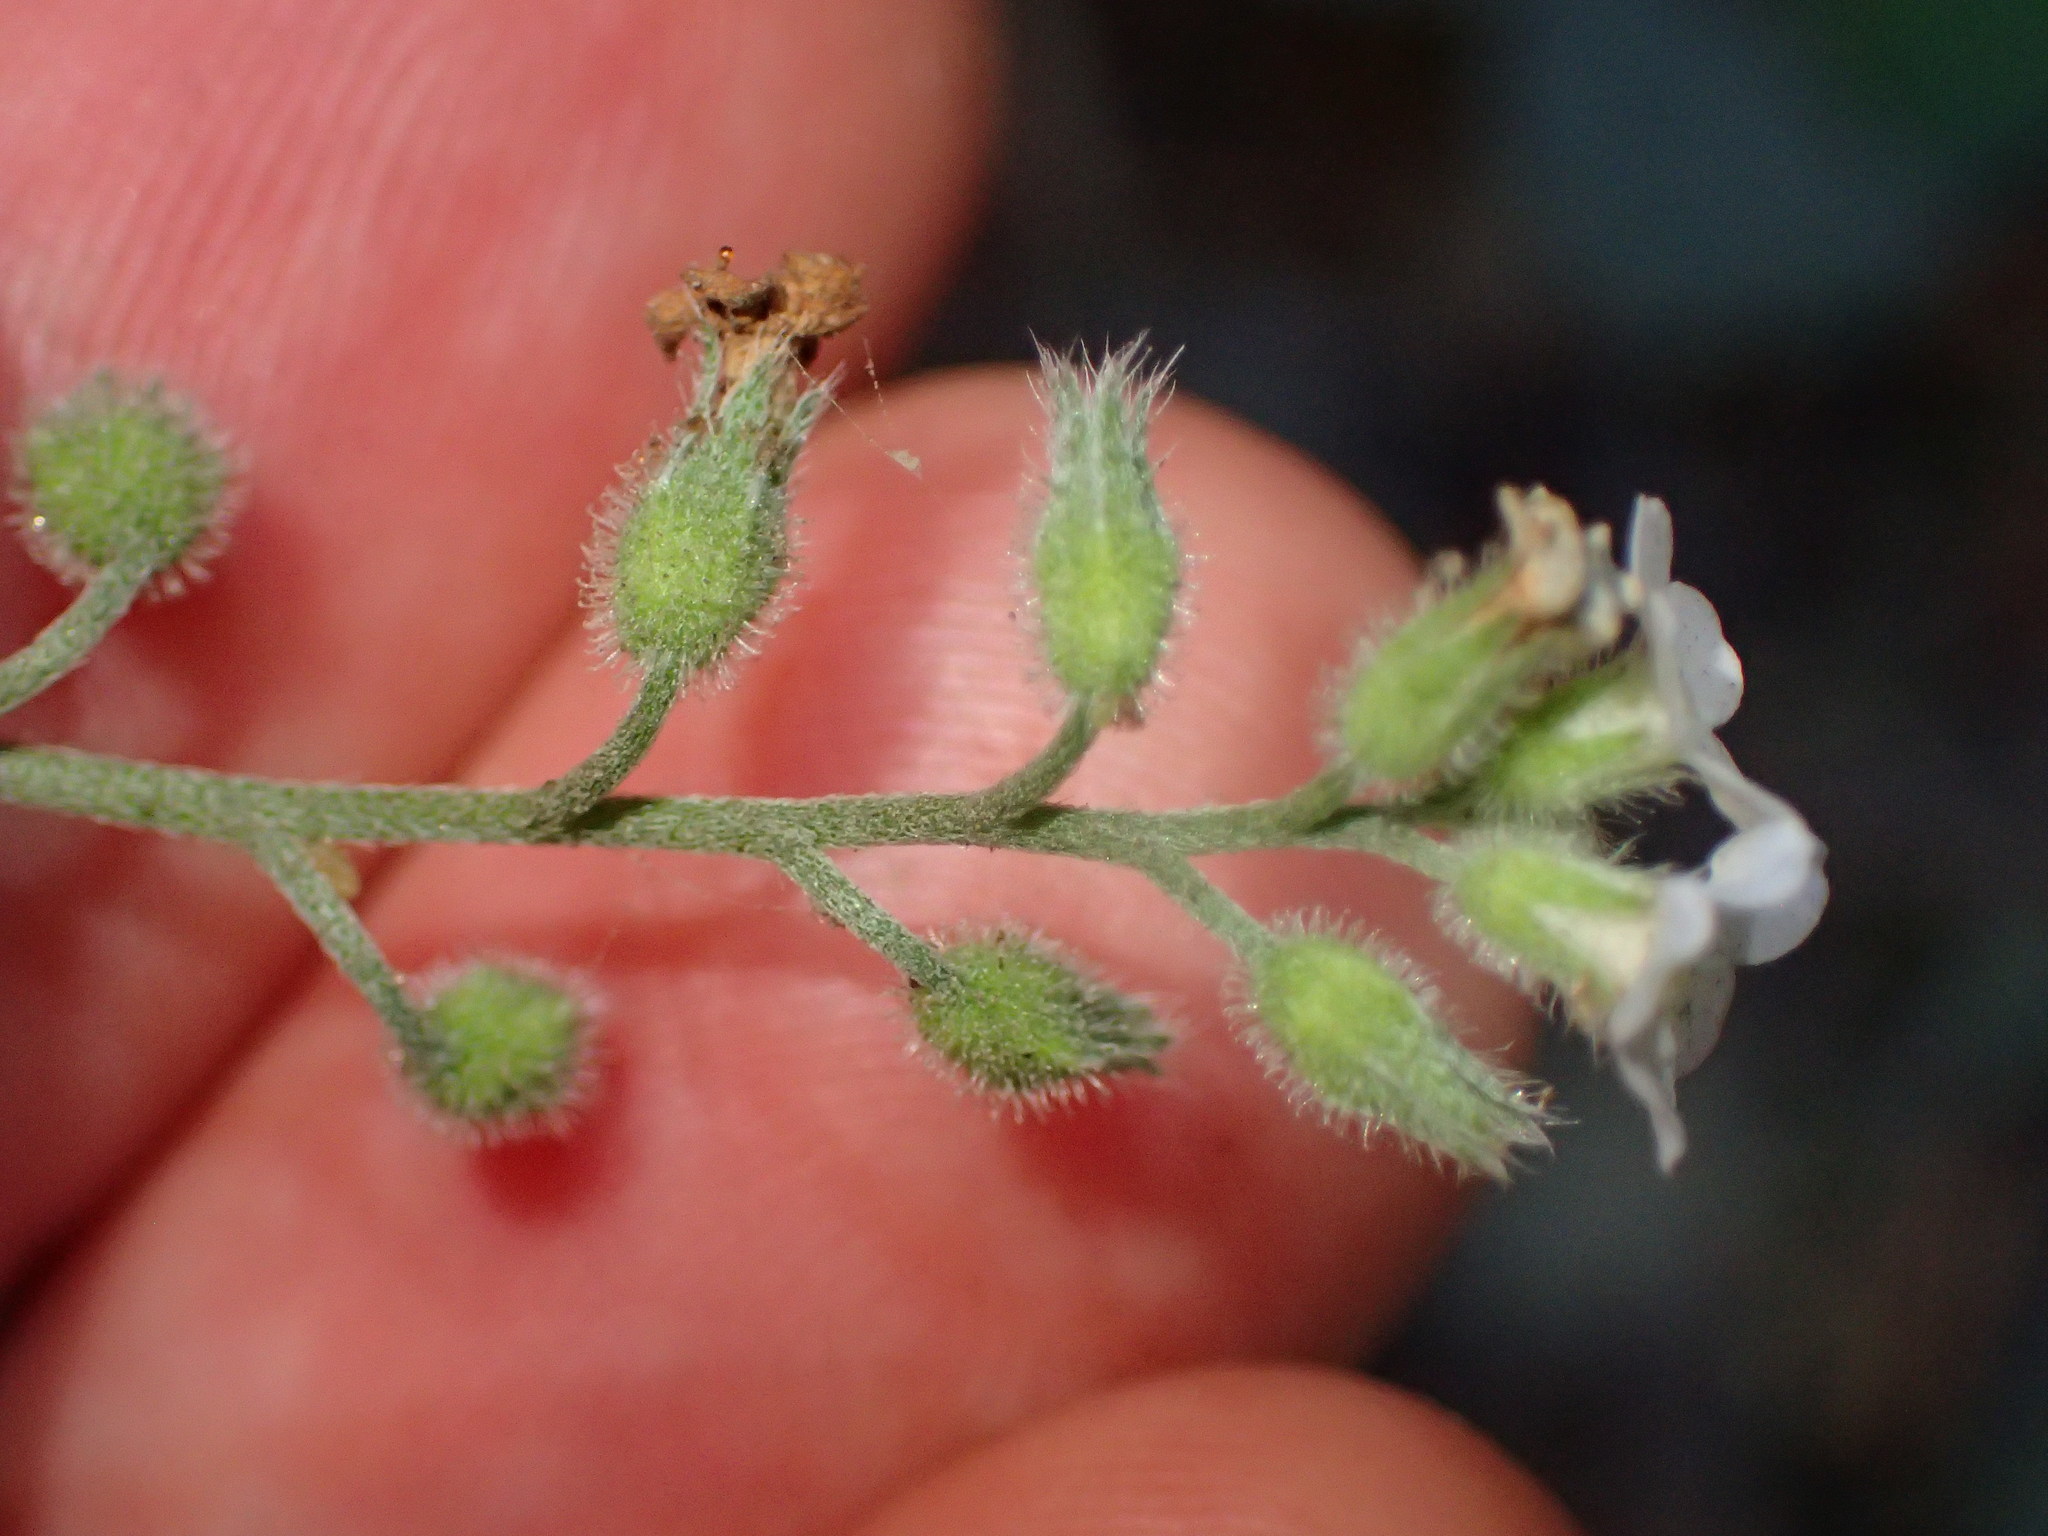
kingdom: Plantae
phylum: Tracheophyta
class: Magnoliopsida
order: Boraginales
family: Boraginaceae
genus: Myosotis
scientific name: Myosotis latifolia
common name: Broadleaf forget-me-not
